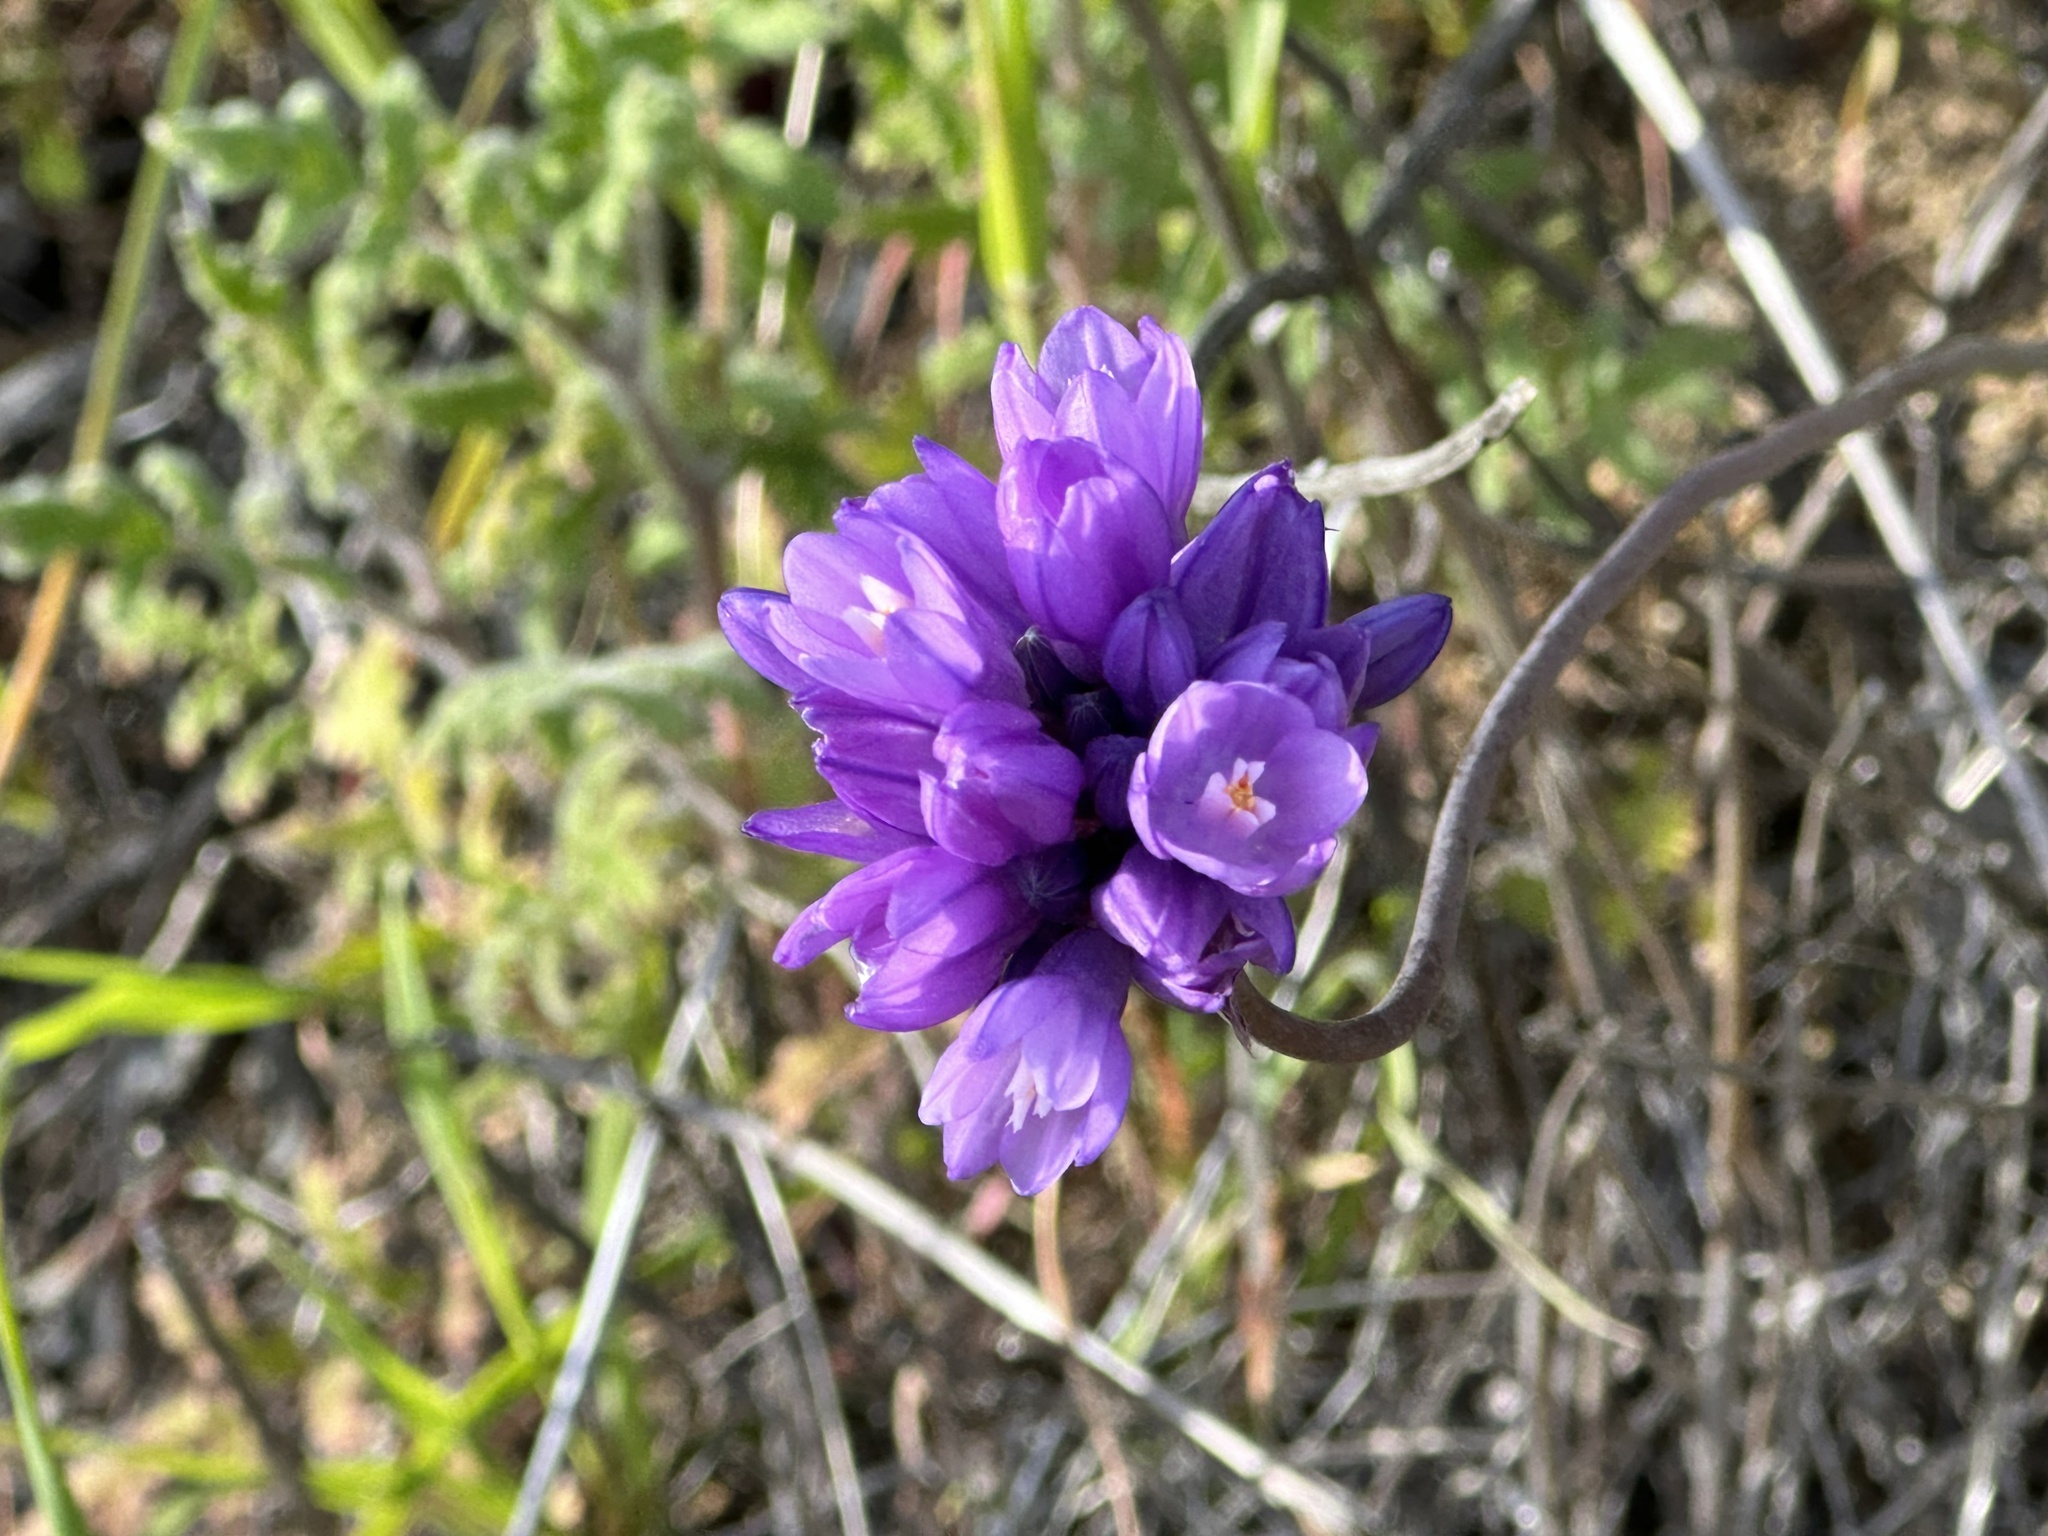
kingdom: Plantae
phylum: Tracheophyta
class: Liliopsida
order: Asparagales
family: Asparagaceae
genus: Dipterostemon
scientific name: Dipterostemon capitatus
